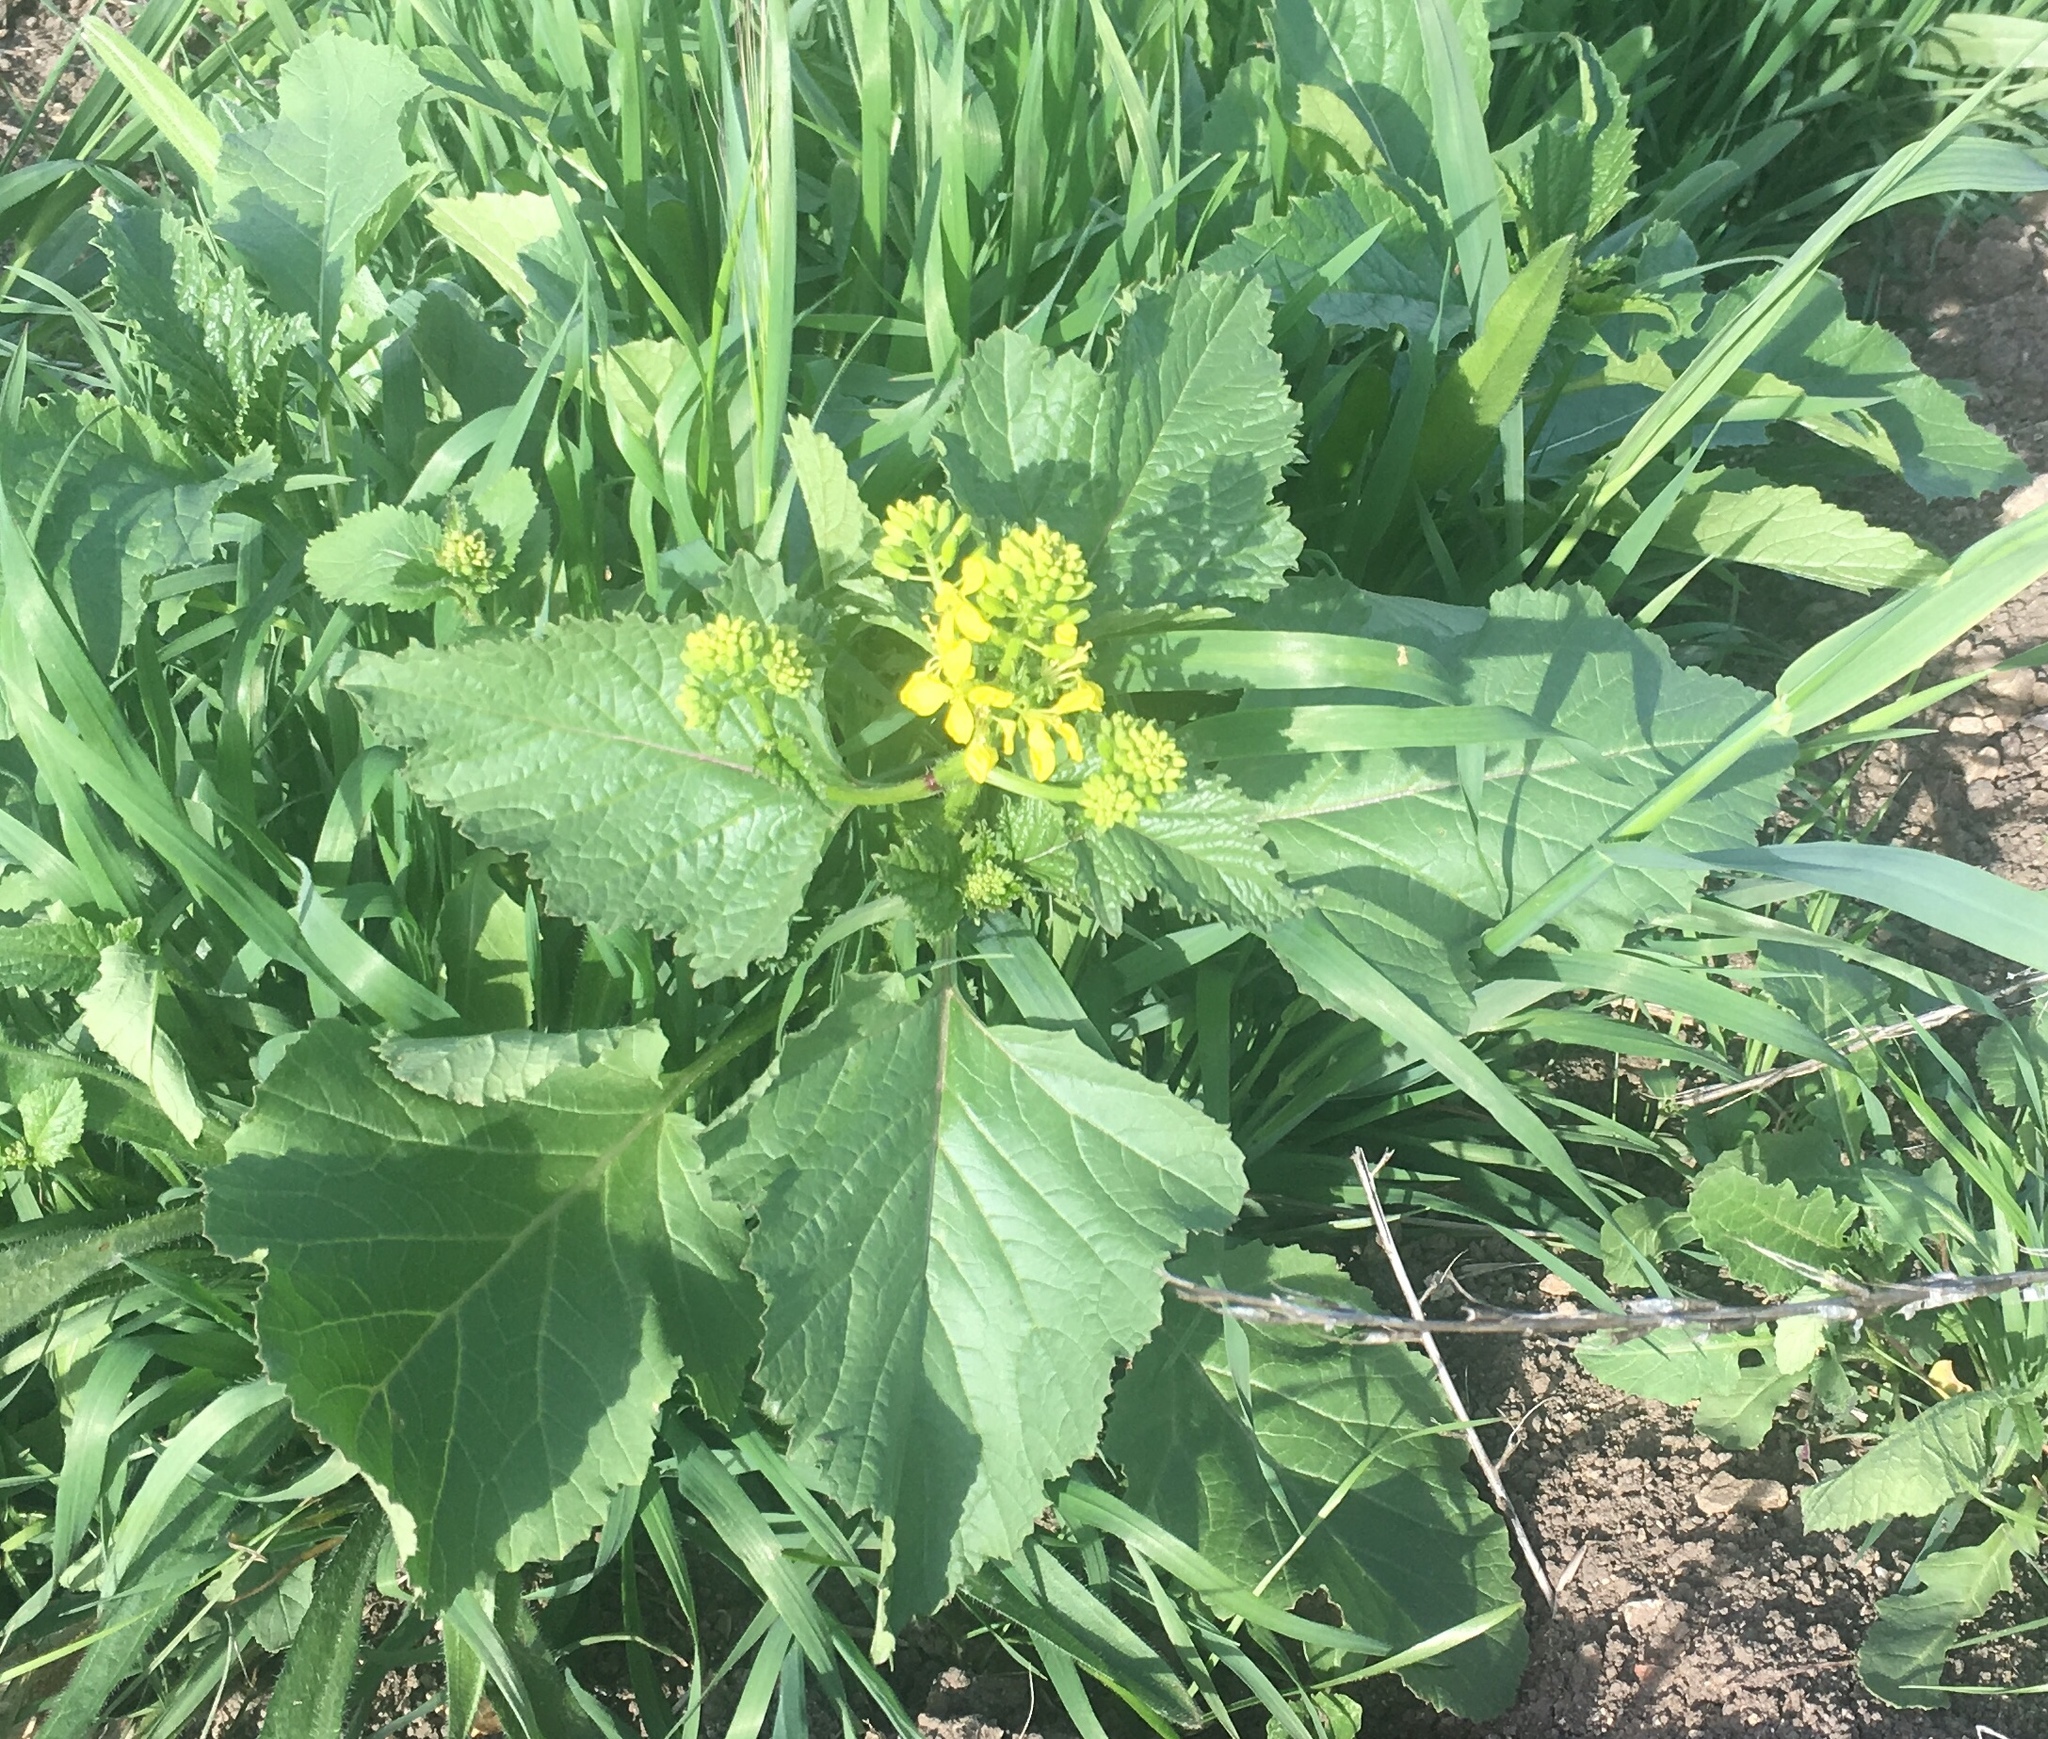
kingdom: Plantae
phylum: Tracheophyta
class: Magnoliopsida
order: Brassicales
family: Brassicaceae
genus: Brassica
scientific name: Brassica nigra
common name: Black mustard
